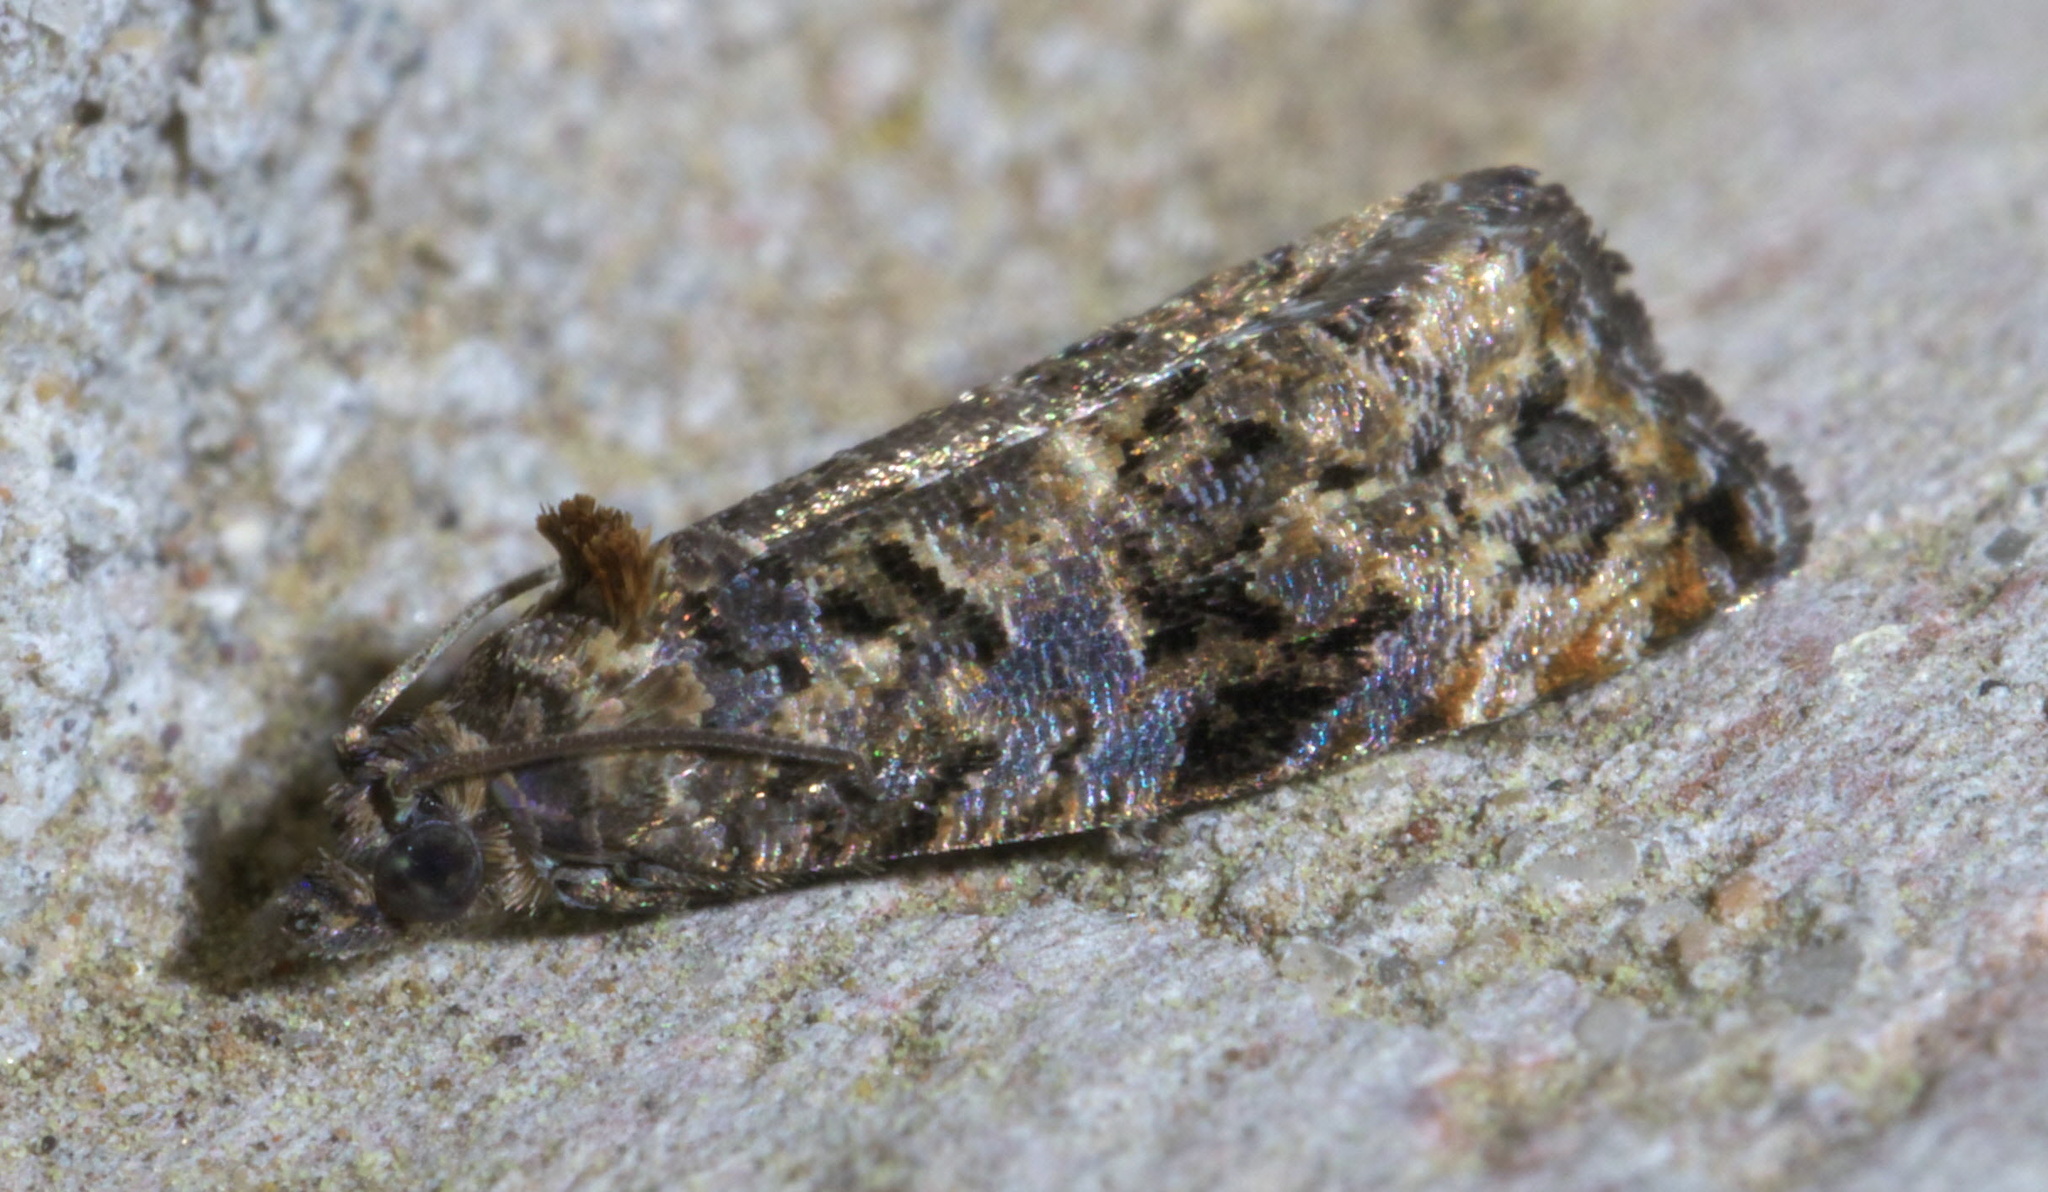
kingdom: Animalia
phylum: Arthropoda
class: Insecta
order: Lepidoptera
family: Tortricidae
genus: Endothenia
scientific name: Endothenia hebesana
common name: Verbena bud moth
